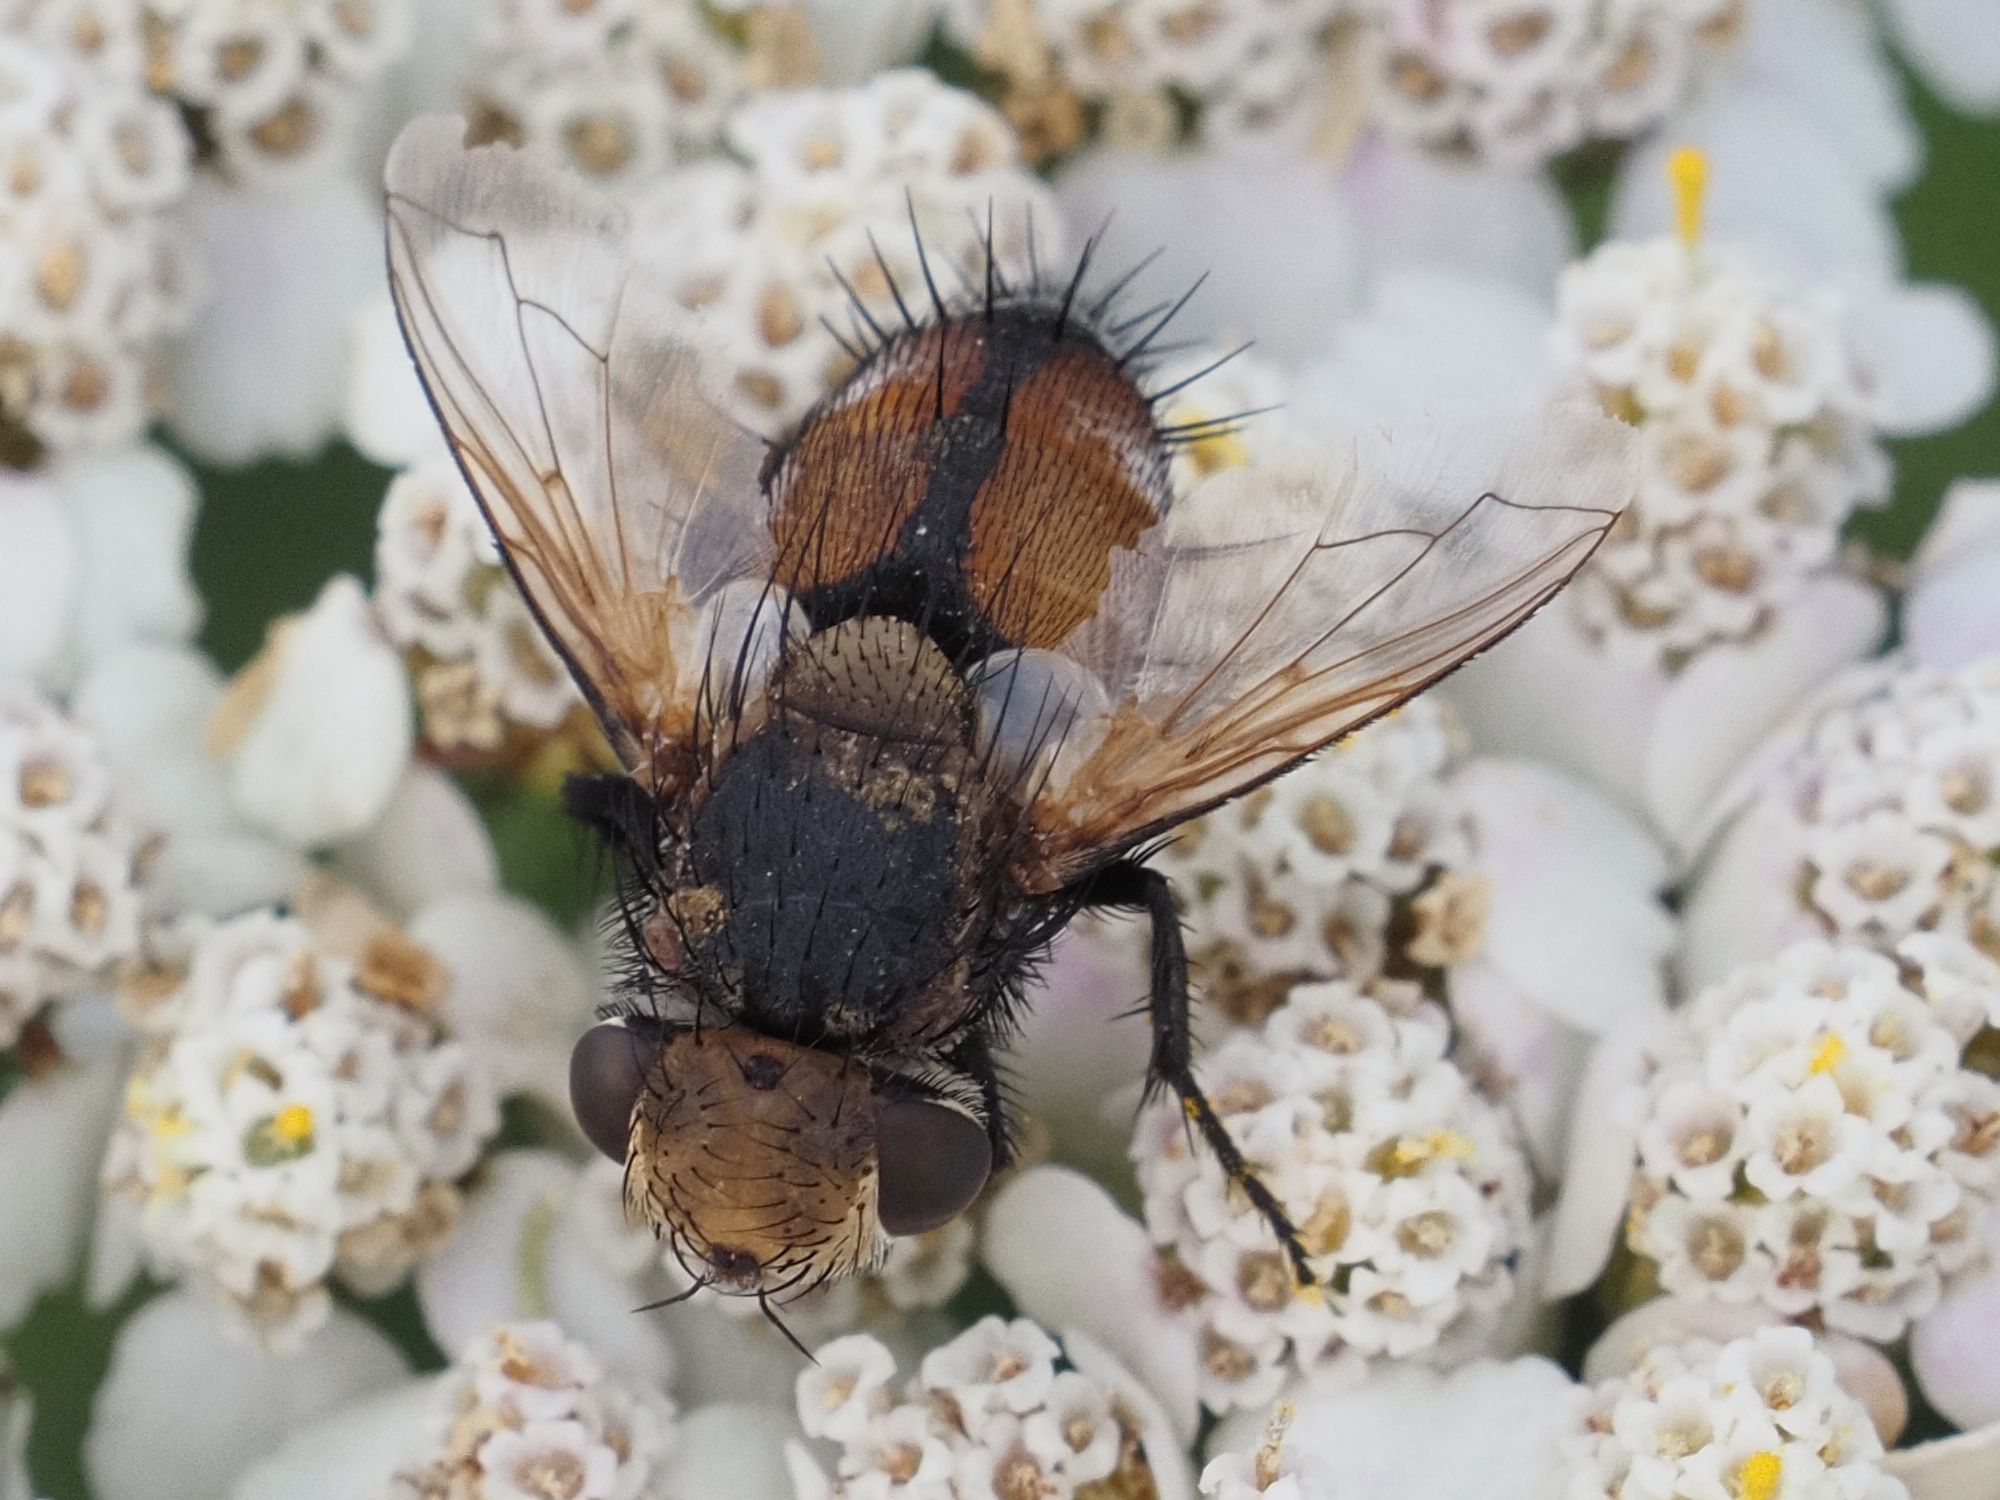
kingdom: Animalia
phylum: Arthropoda
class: Insecta
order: Diptera
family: Tachinidae
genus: Gonia
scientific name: Gonia capitata
